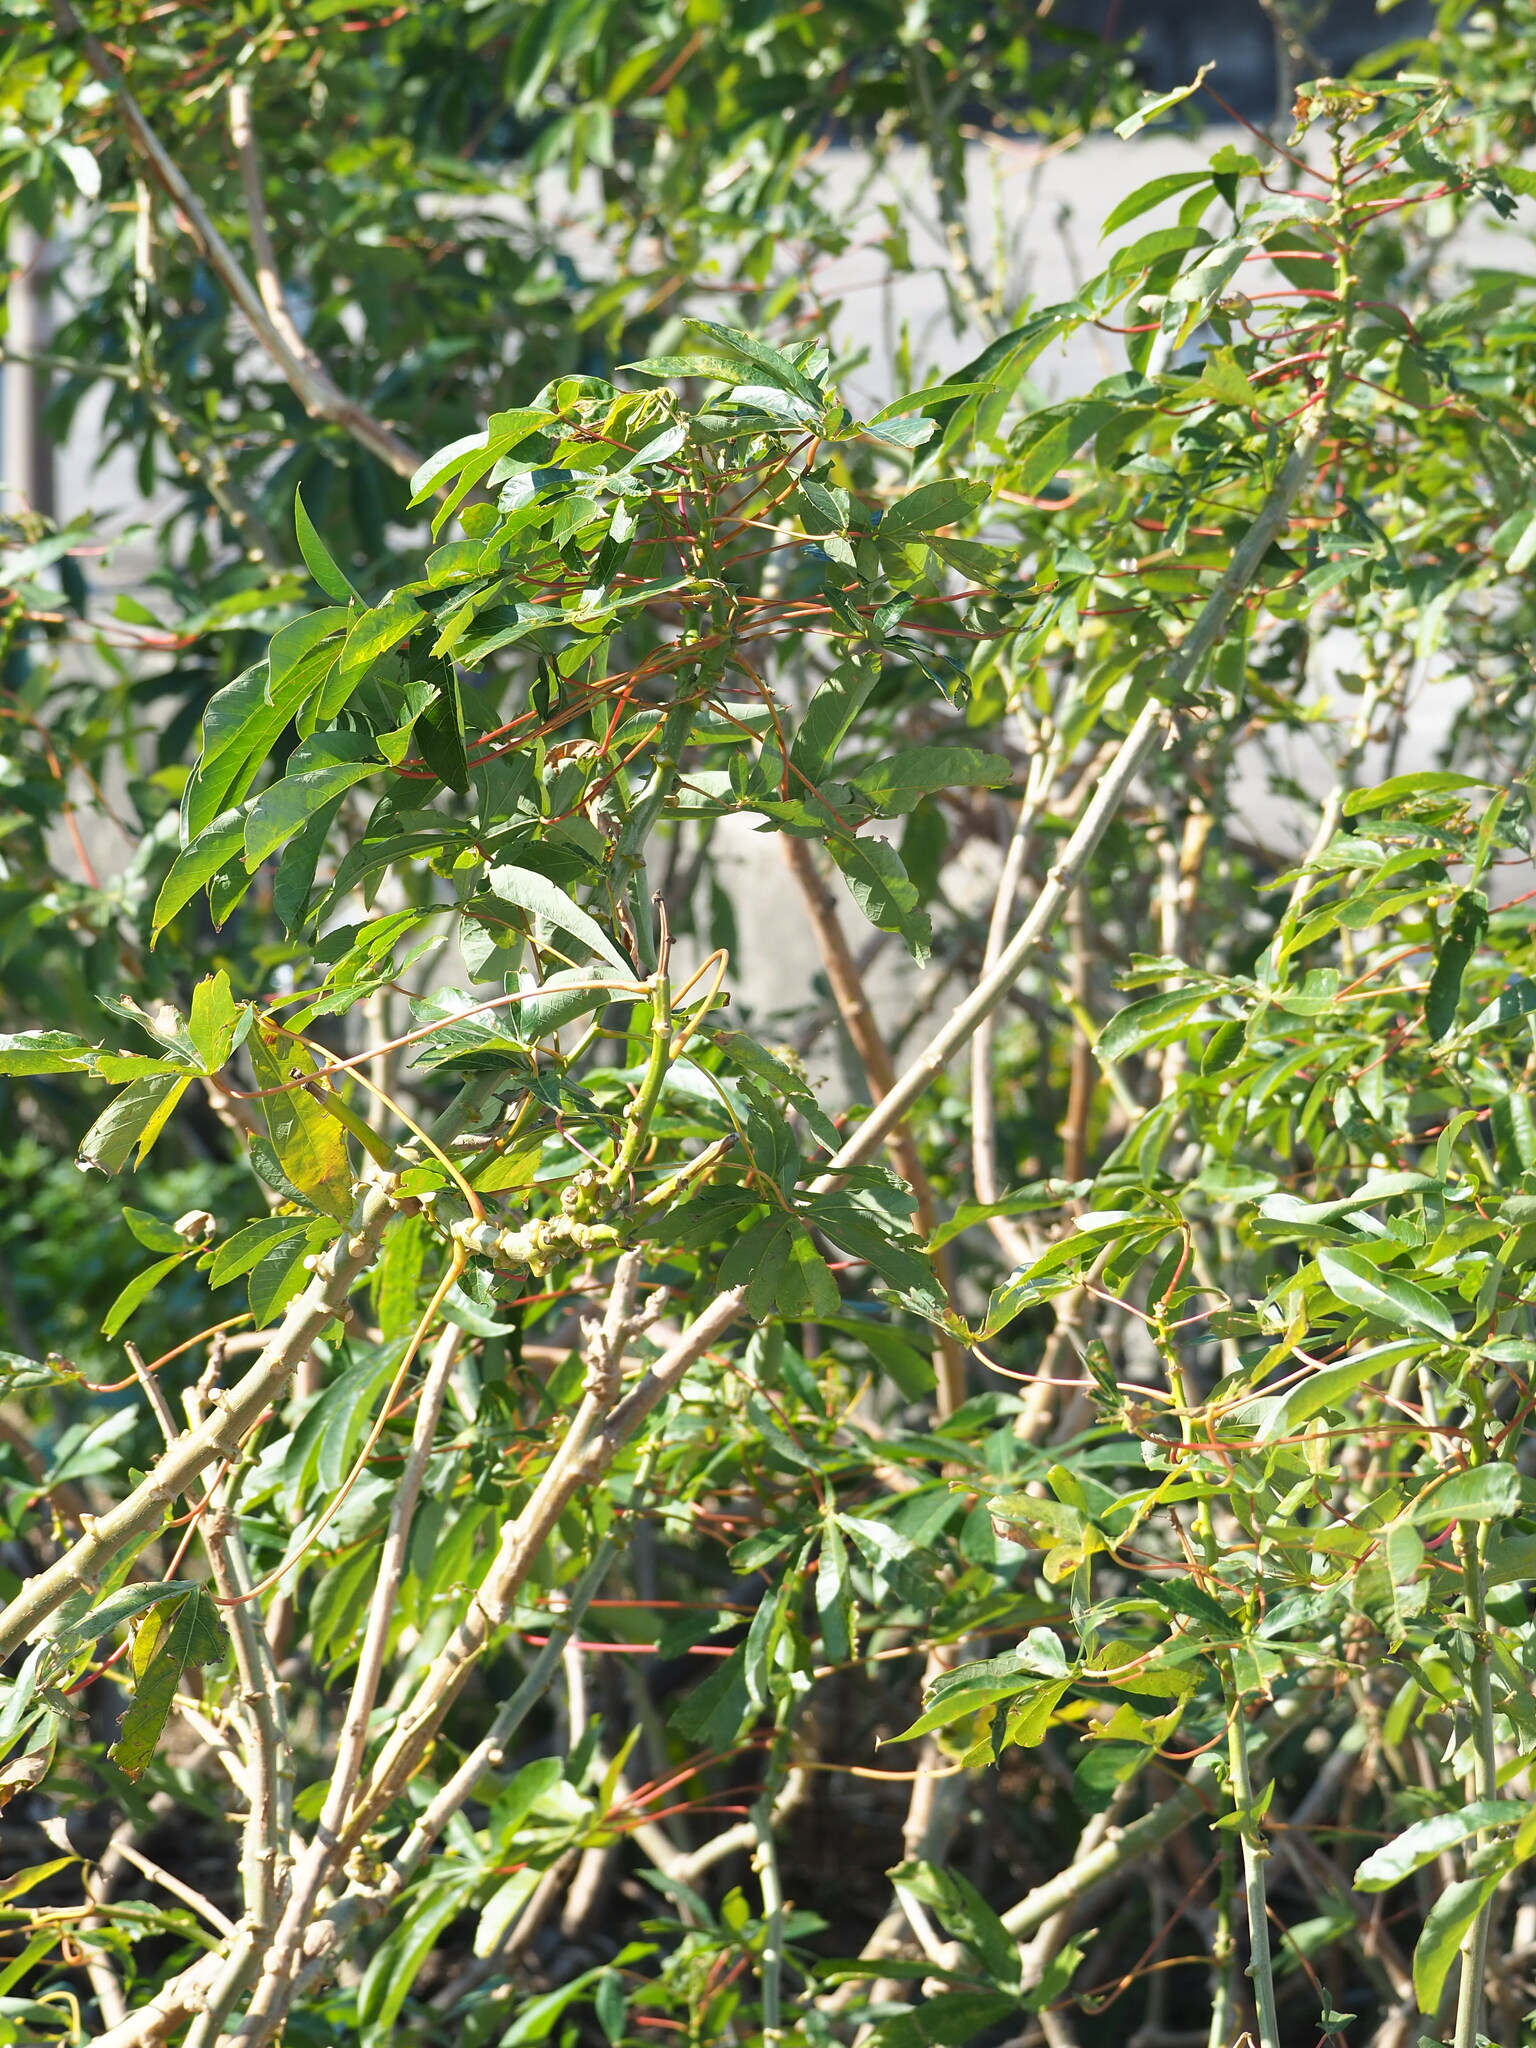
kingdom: Plantae
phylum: Tracheophyta
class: Magnoliopsida
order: Malpighiales
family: Euphorbiaceae
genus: Manihot
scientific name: Manihot esculenta
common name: Cassava
